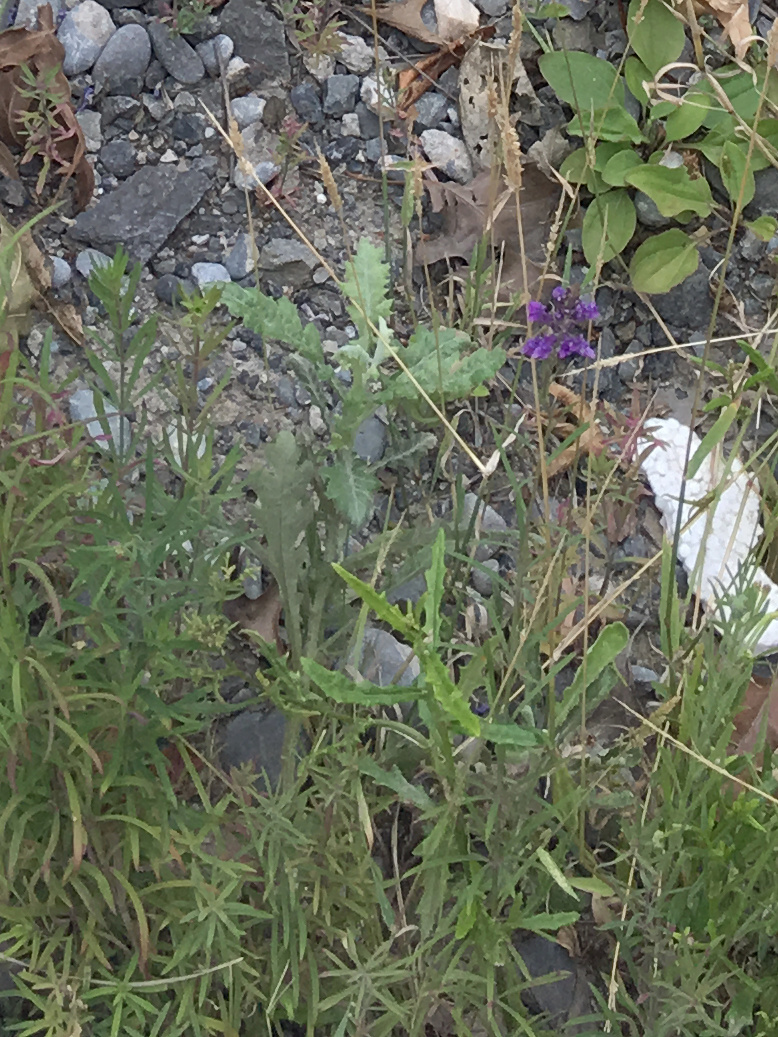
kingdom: Plantae
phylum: Tracheophyta
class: Magnoliopsida
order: Asterales
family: Asteraceae
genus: Senecio
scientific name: Senecio glomeratus
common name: Cutleaf burnweed
